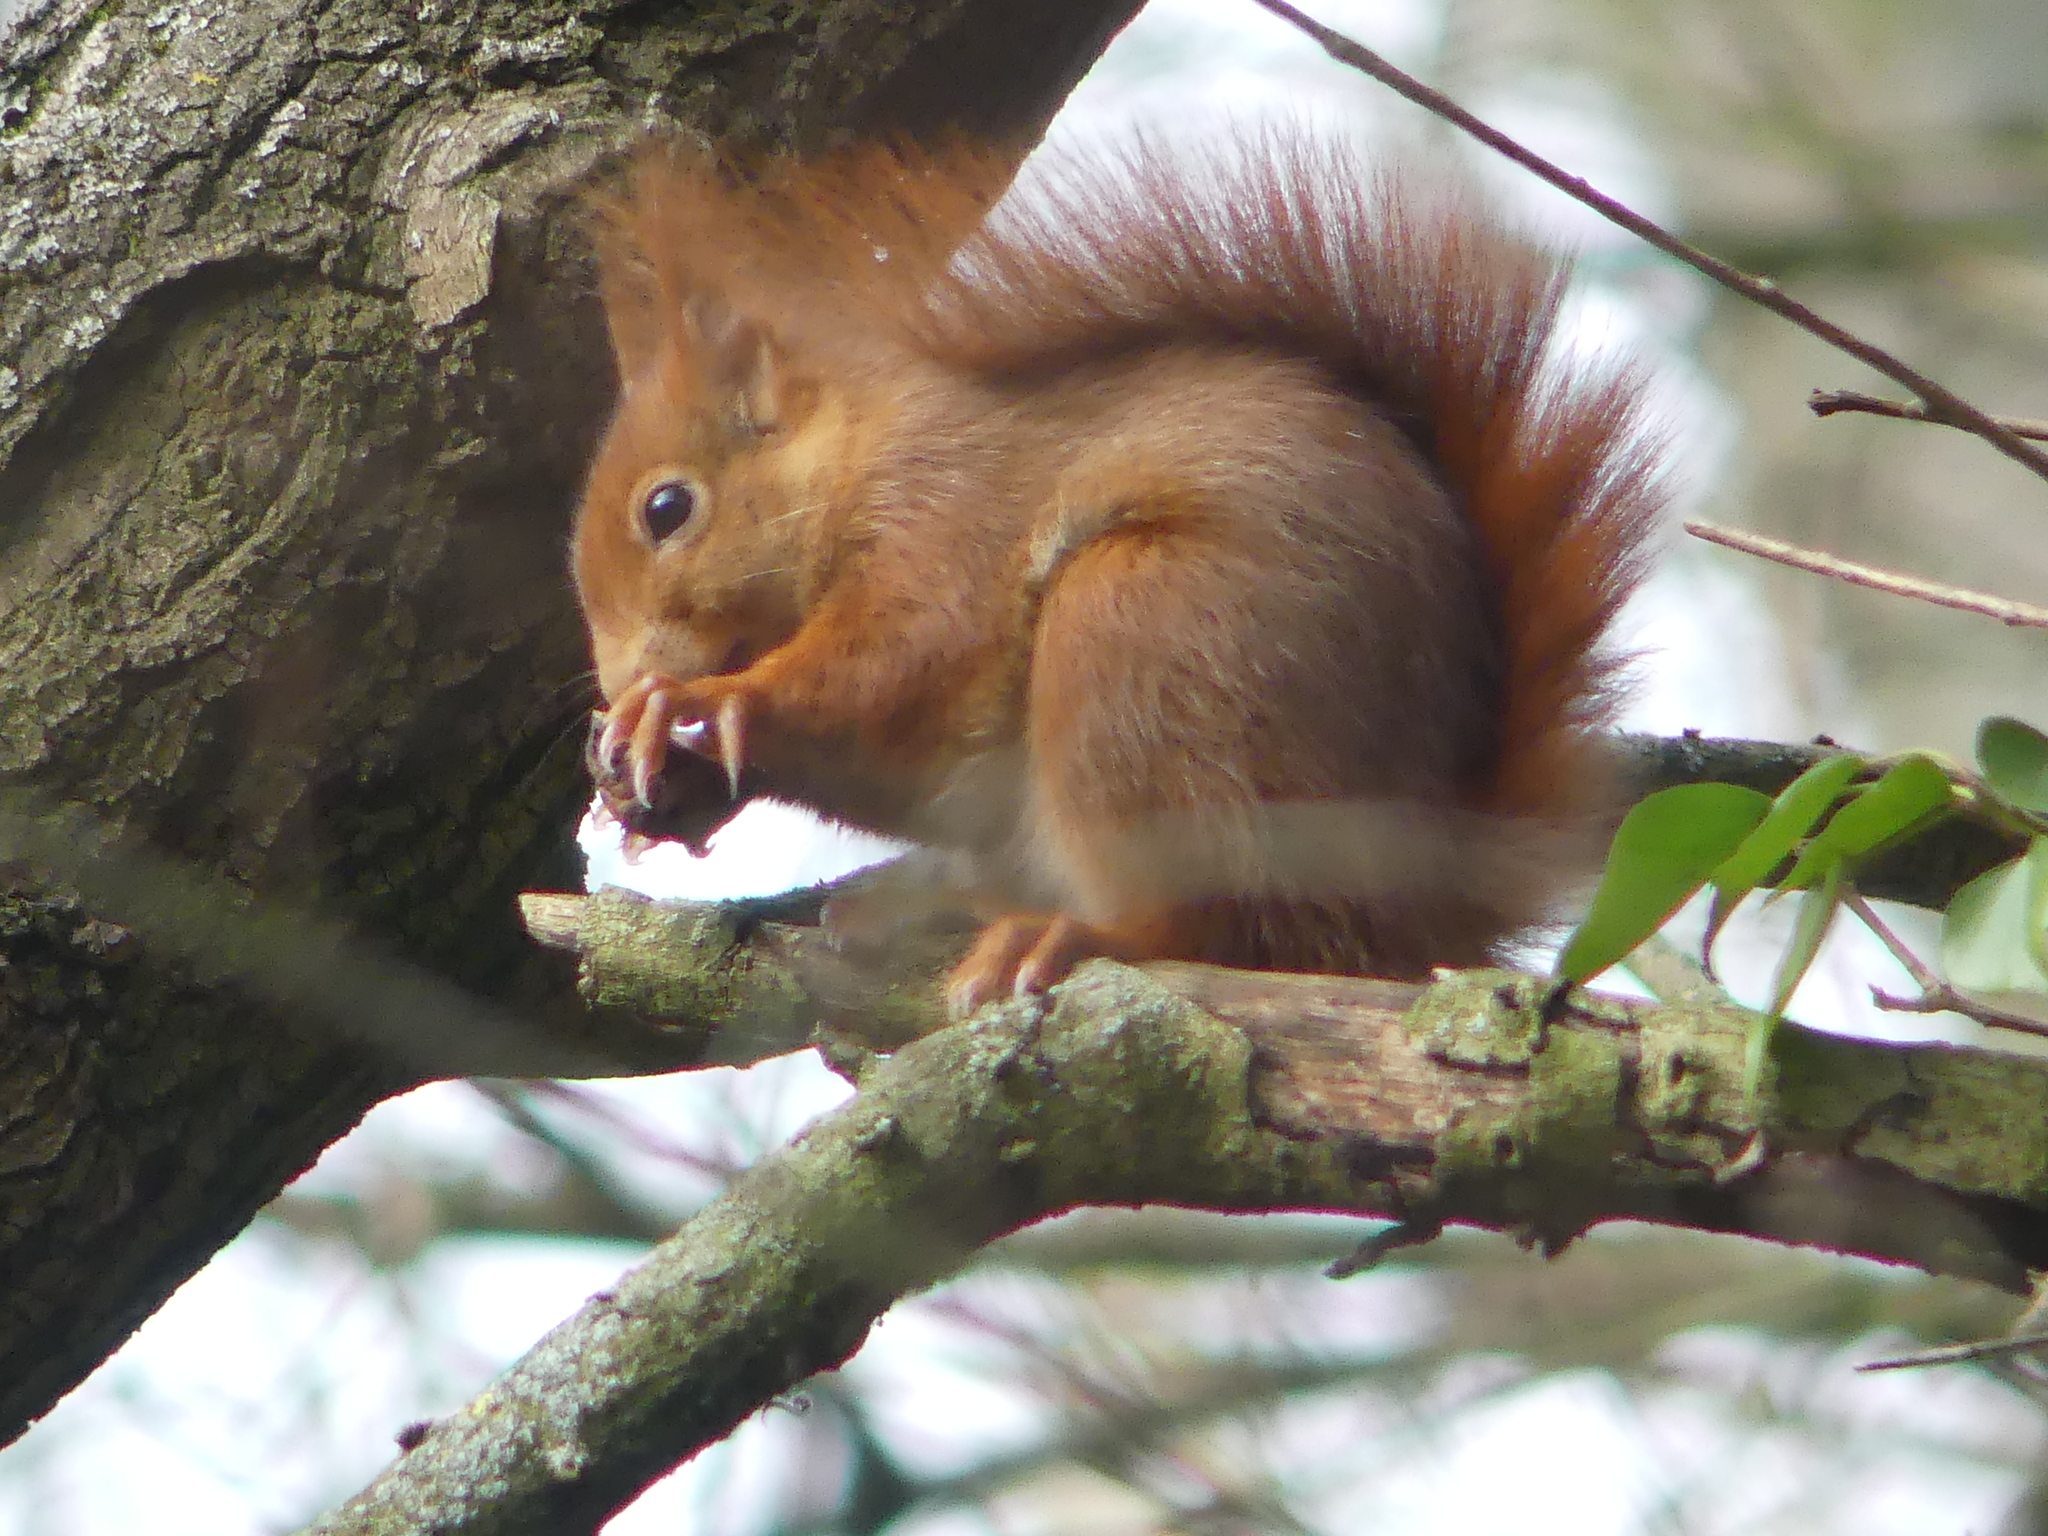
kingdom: Animalia
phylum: Chordata
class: Mammalia
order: Rodentia
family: Sciuridae
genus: Sciurus
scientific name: Sciurus vulgaris
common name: Eurasian red squirrel
